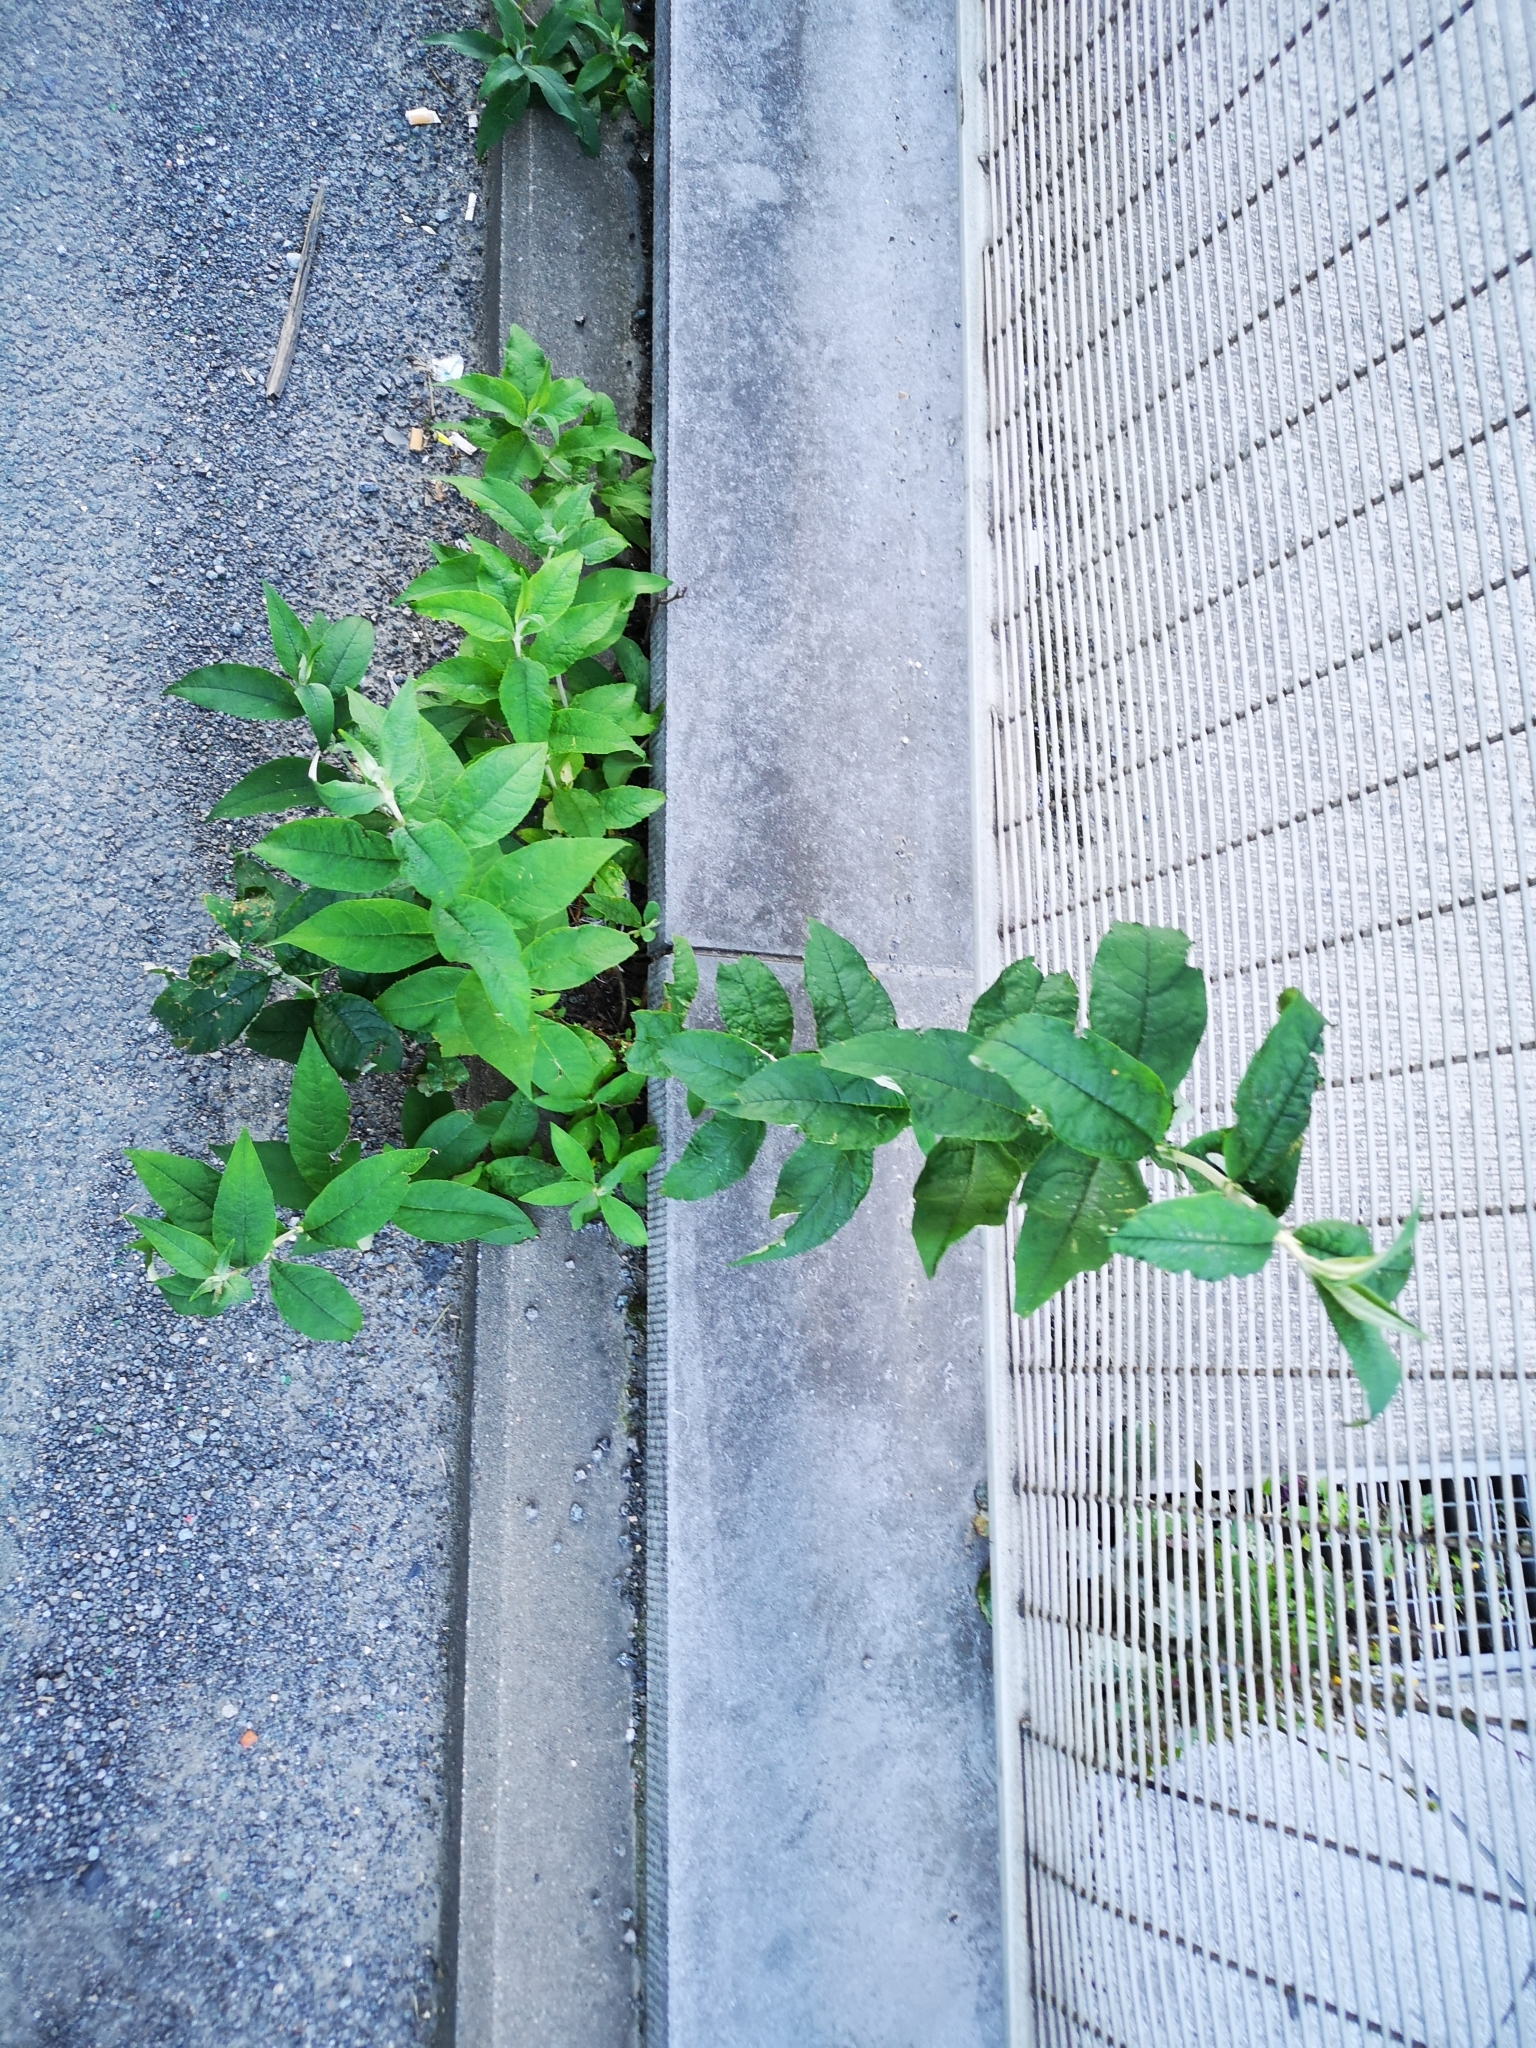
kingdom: Plantae
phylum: Tracheophyta
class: Magnoliopsida
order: Lamiales
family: Scrophulariaceae
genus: Buddleja
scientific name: Buddleja davidii
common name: Butterfly-bush
